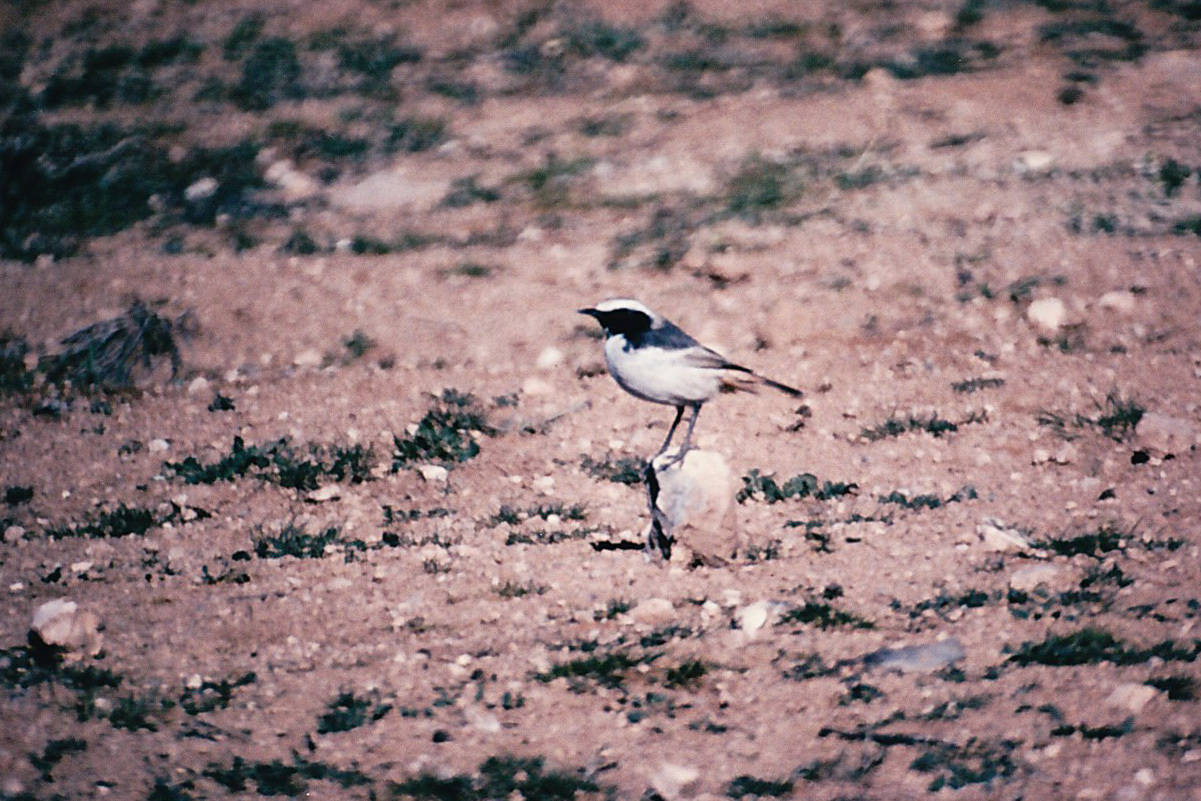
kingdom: Animalia
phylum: Chordata
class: Aves
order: Passeriformes
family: Muscicapidae
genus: Oenanthe
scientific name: Oenanthe moesta
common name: Red-rumped wheatear
